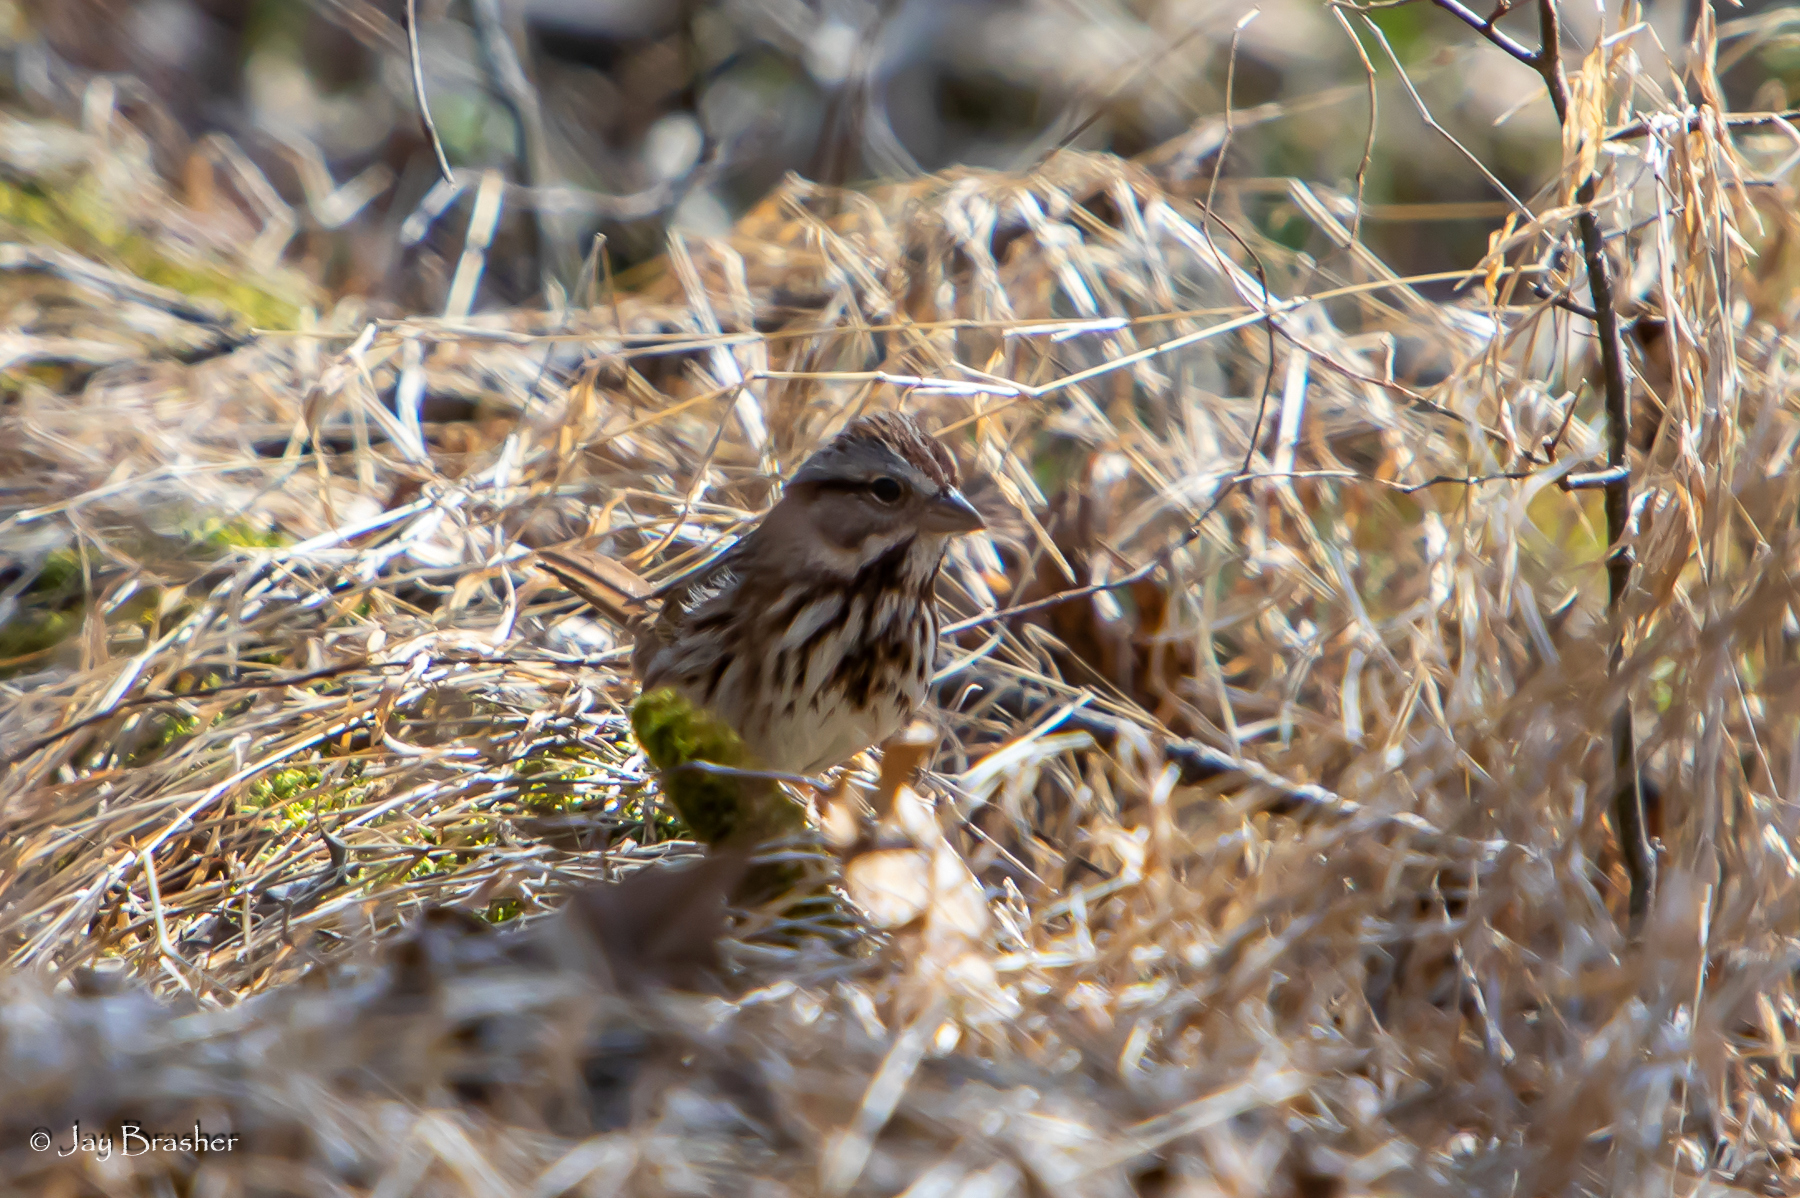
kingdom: Animalia
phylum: Chordata
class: Aves
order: Passeriformes
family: Passerellidae
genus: Melospiza
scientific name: Melospiza melodia
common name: Song sparrow
